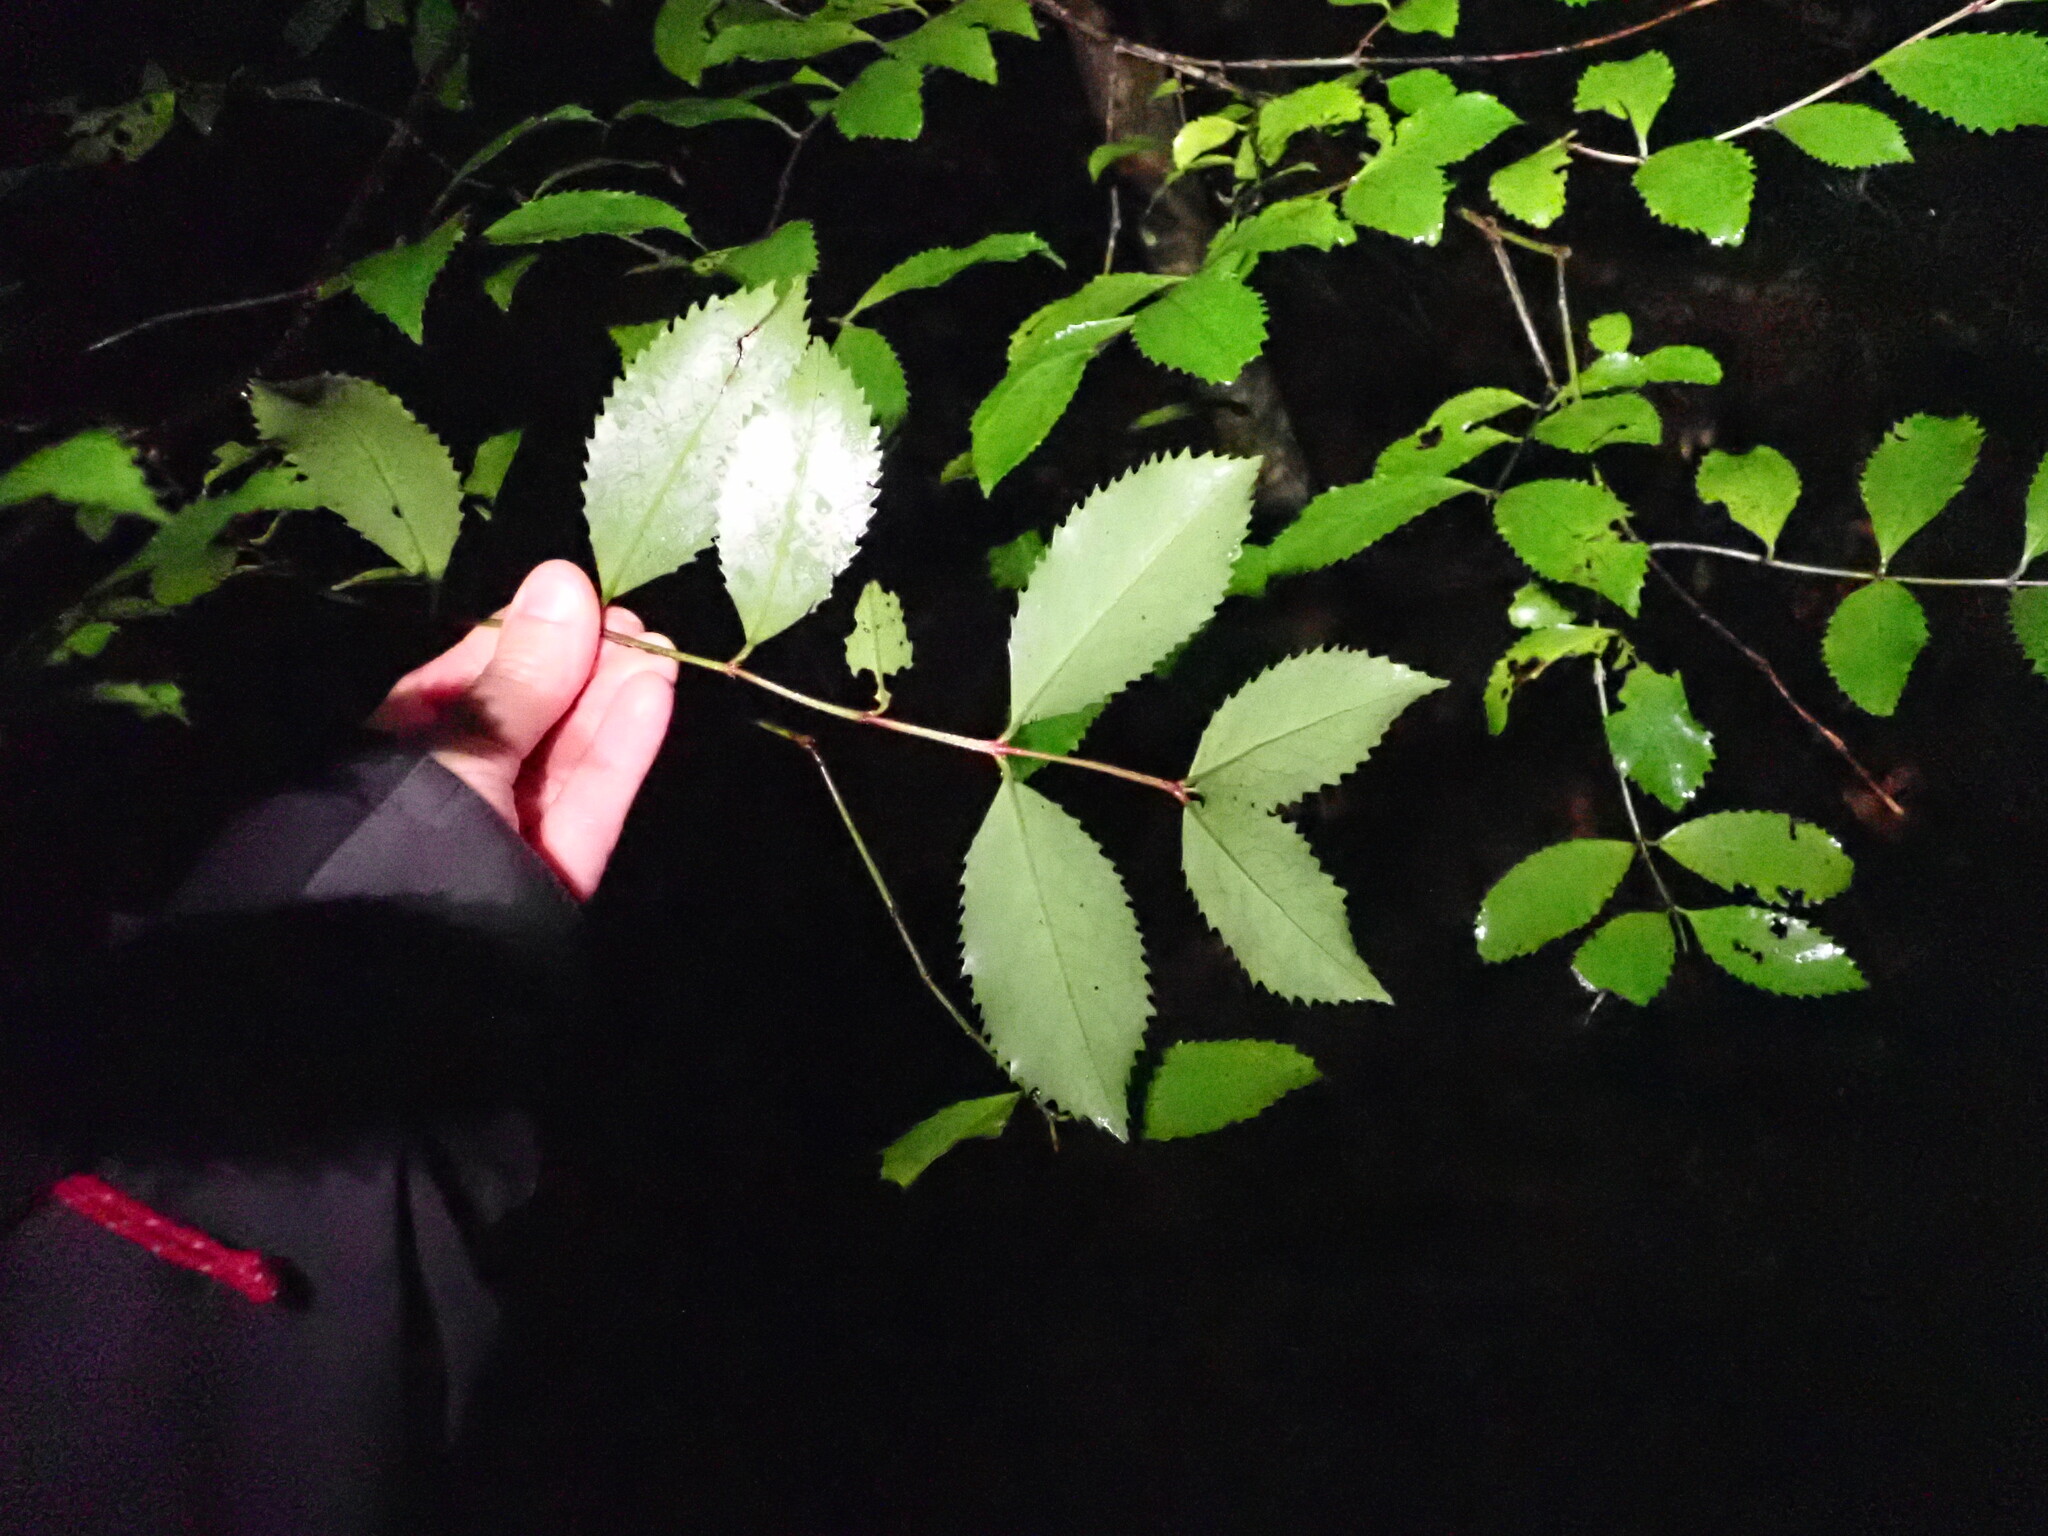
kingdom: Plantae
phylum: Tracheophyta
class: Magnoliopsida
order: Laurales
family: Atherospermataceae
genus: Laurelia
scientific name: Laurelia novae-zelandiae
